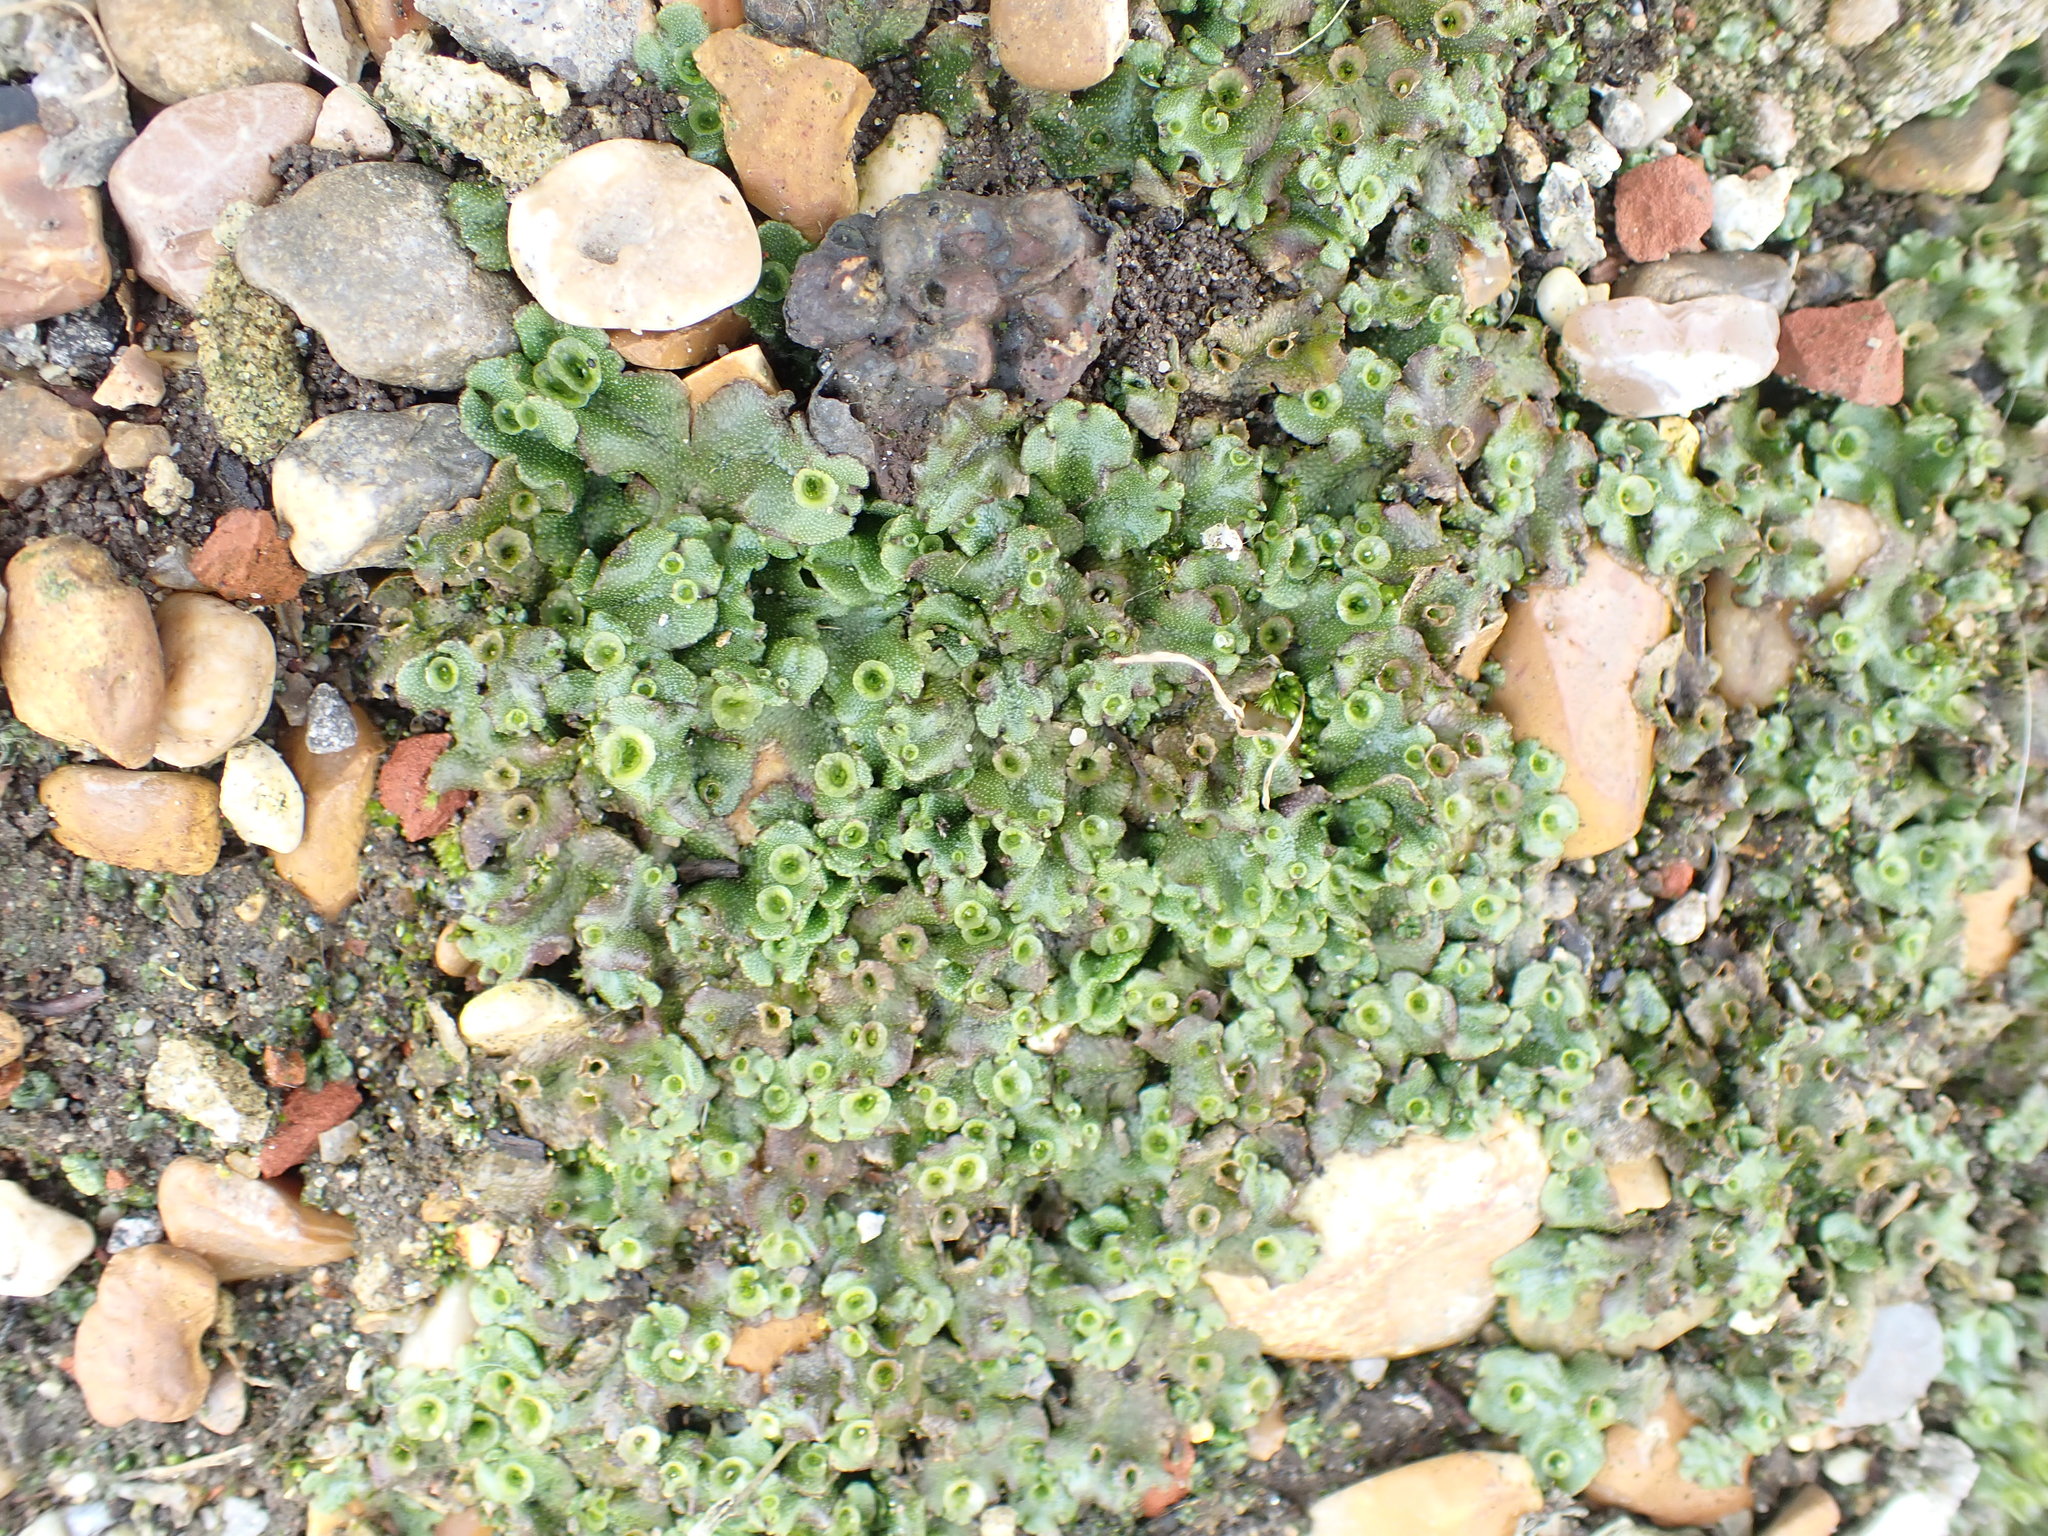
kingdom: Plantae
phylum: Marchantiophyta
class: Marchantiopsida
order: Marchantiales
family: Marchantiaceae
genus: Marchantia
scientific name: Marchantia polymorpha
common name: Common liverwort
